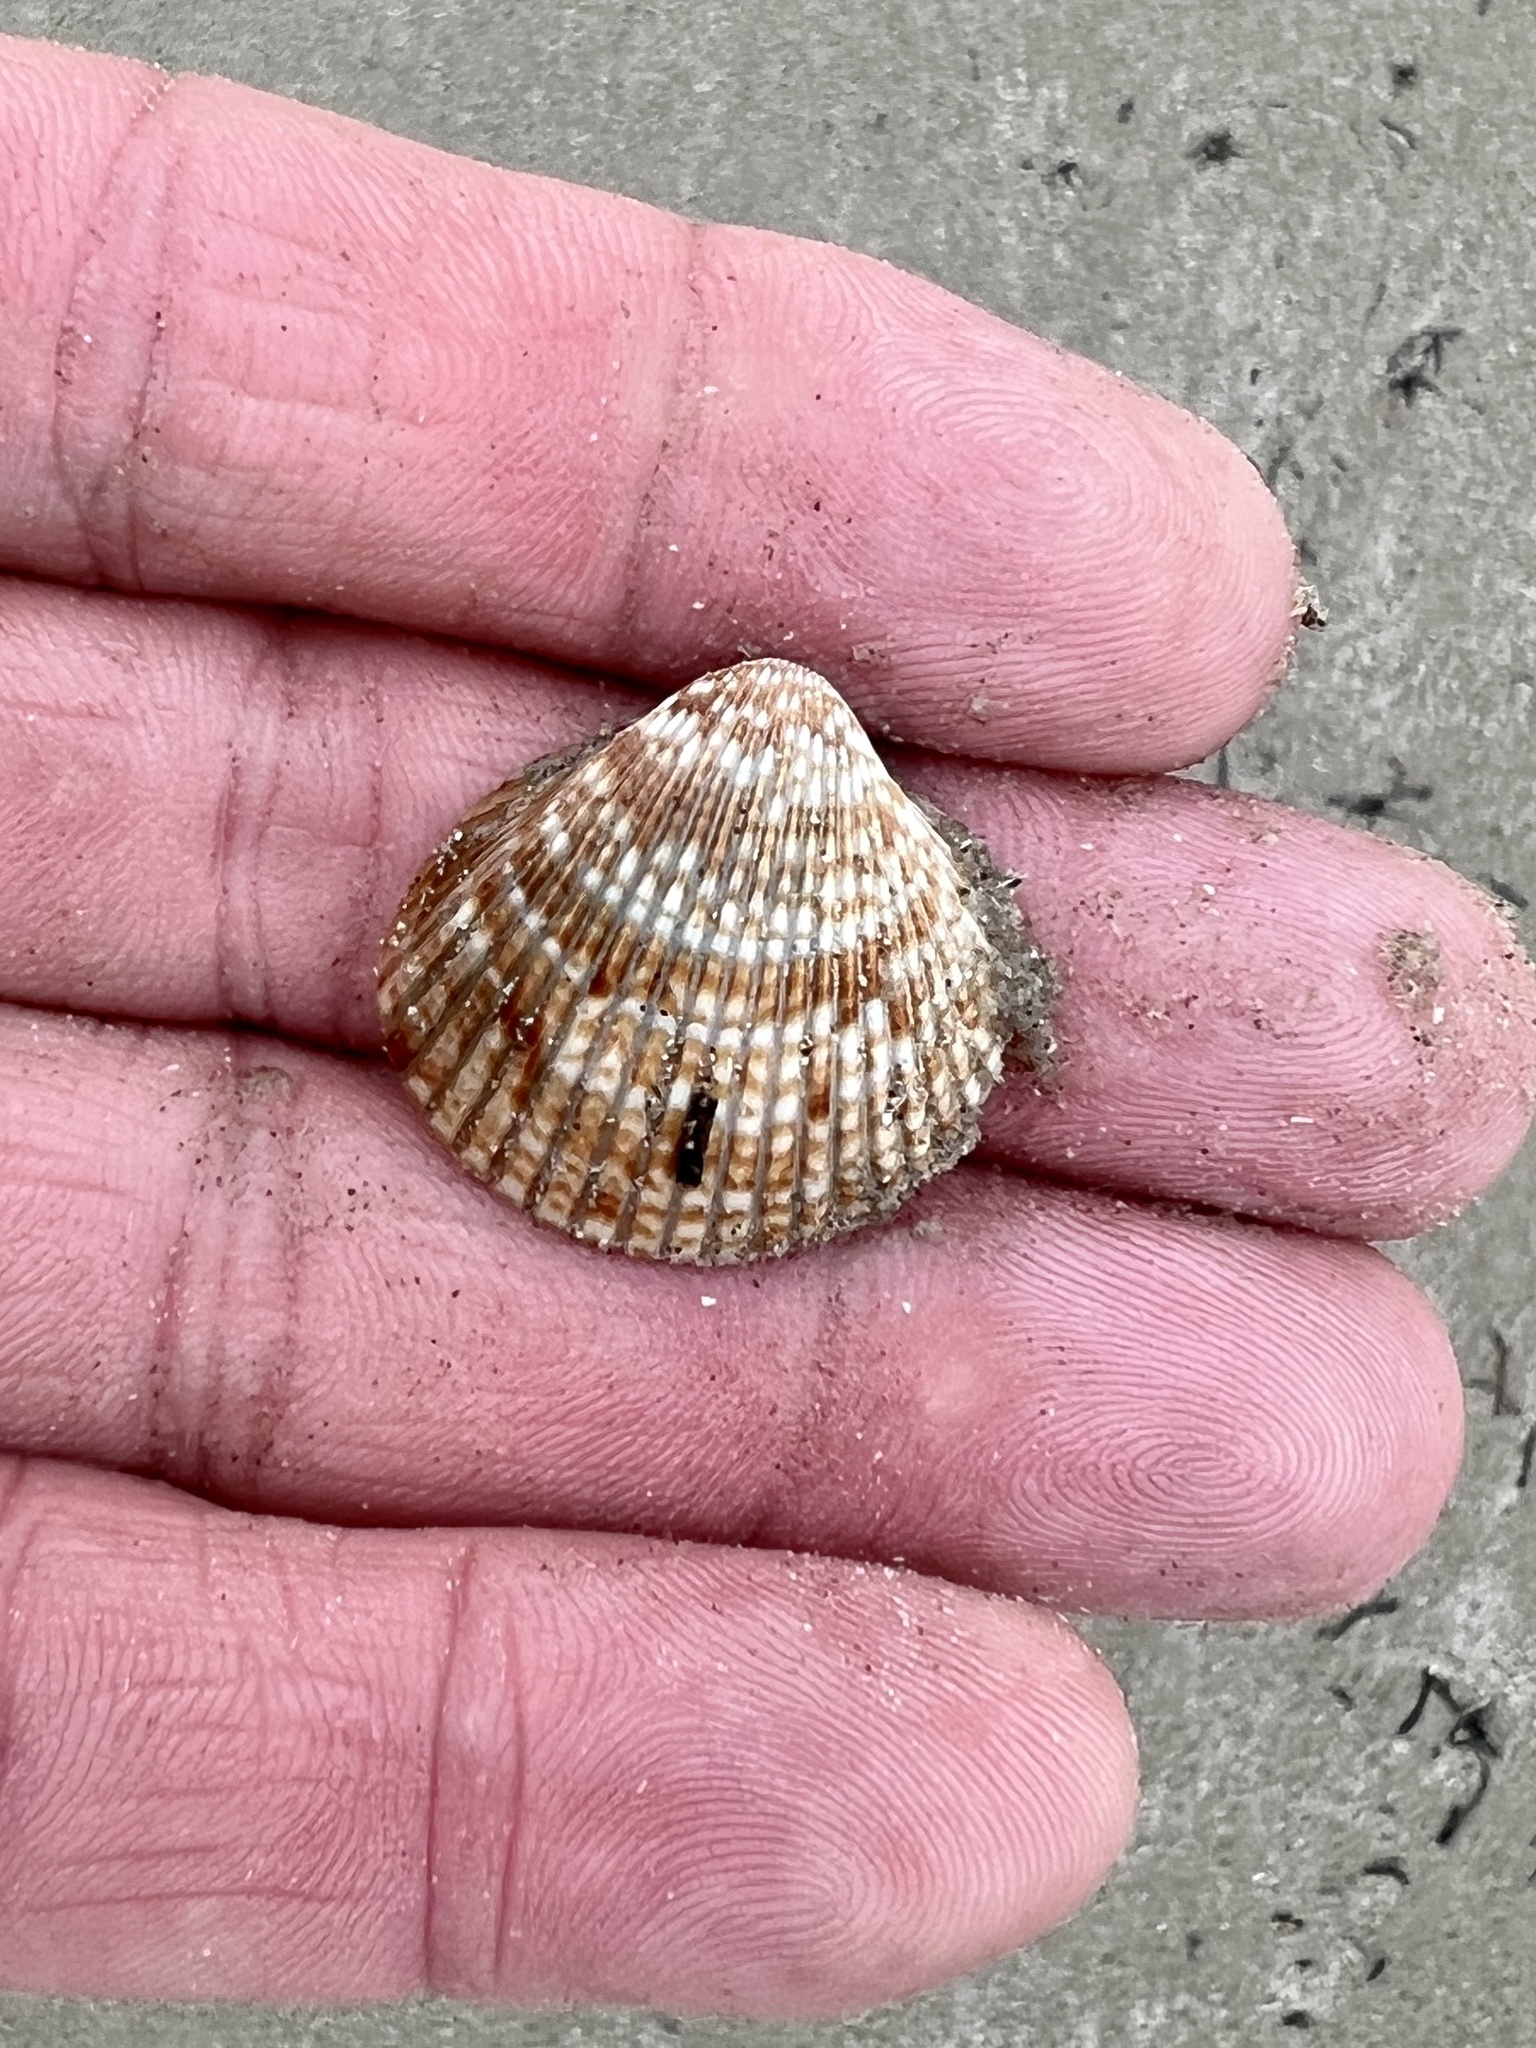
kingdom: Animalia
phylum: Mollusca
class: Bivalvia
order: Cardiida
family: Cardiidae
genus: Dinocardium
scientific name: Dinocardium robustum
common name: Atlantic giant cockle
